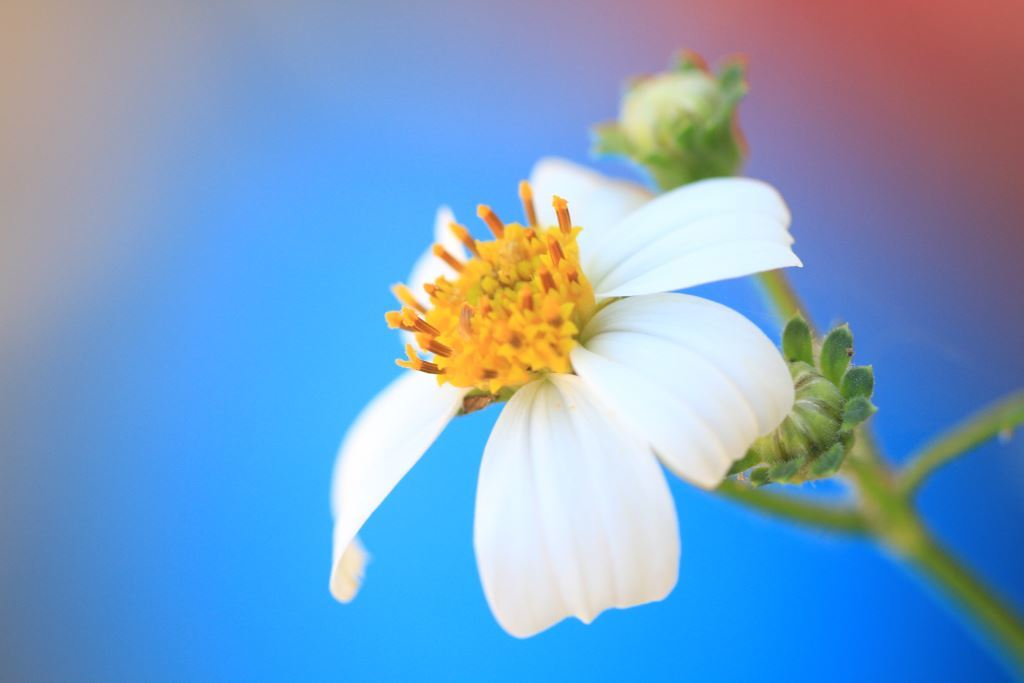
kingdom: Plantae
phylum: Tracheophyta
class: Magnoliopsida
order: Asterales
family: Asteraceae
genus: Bidens
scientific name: Bidens alba
